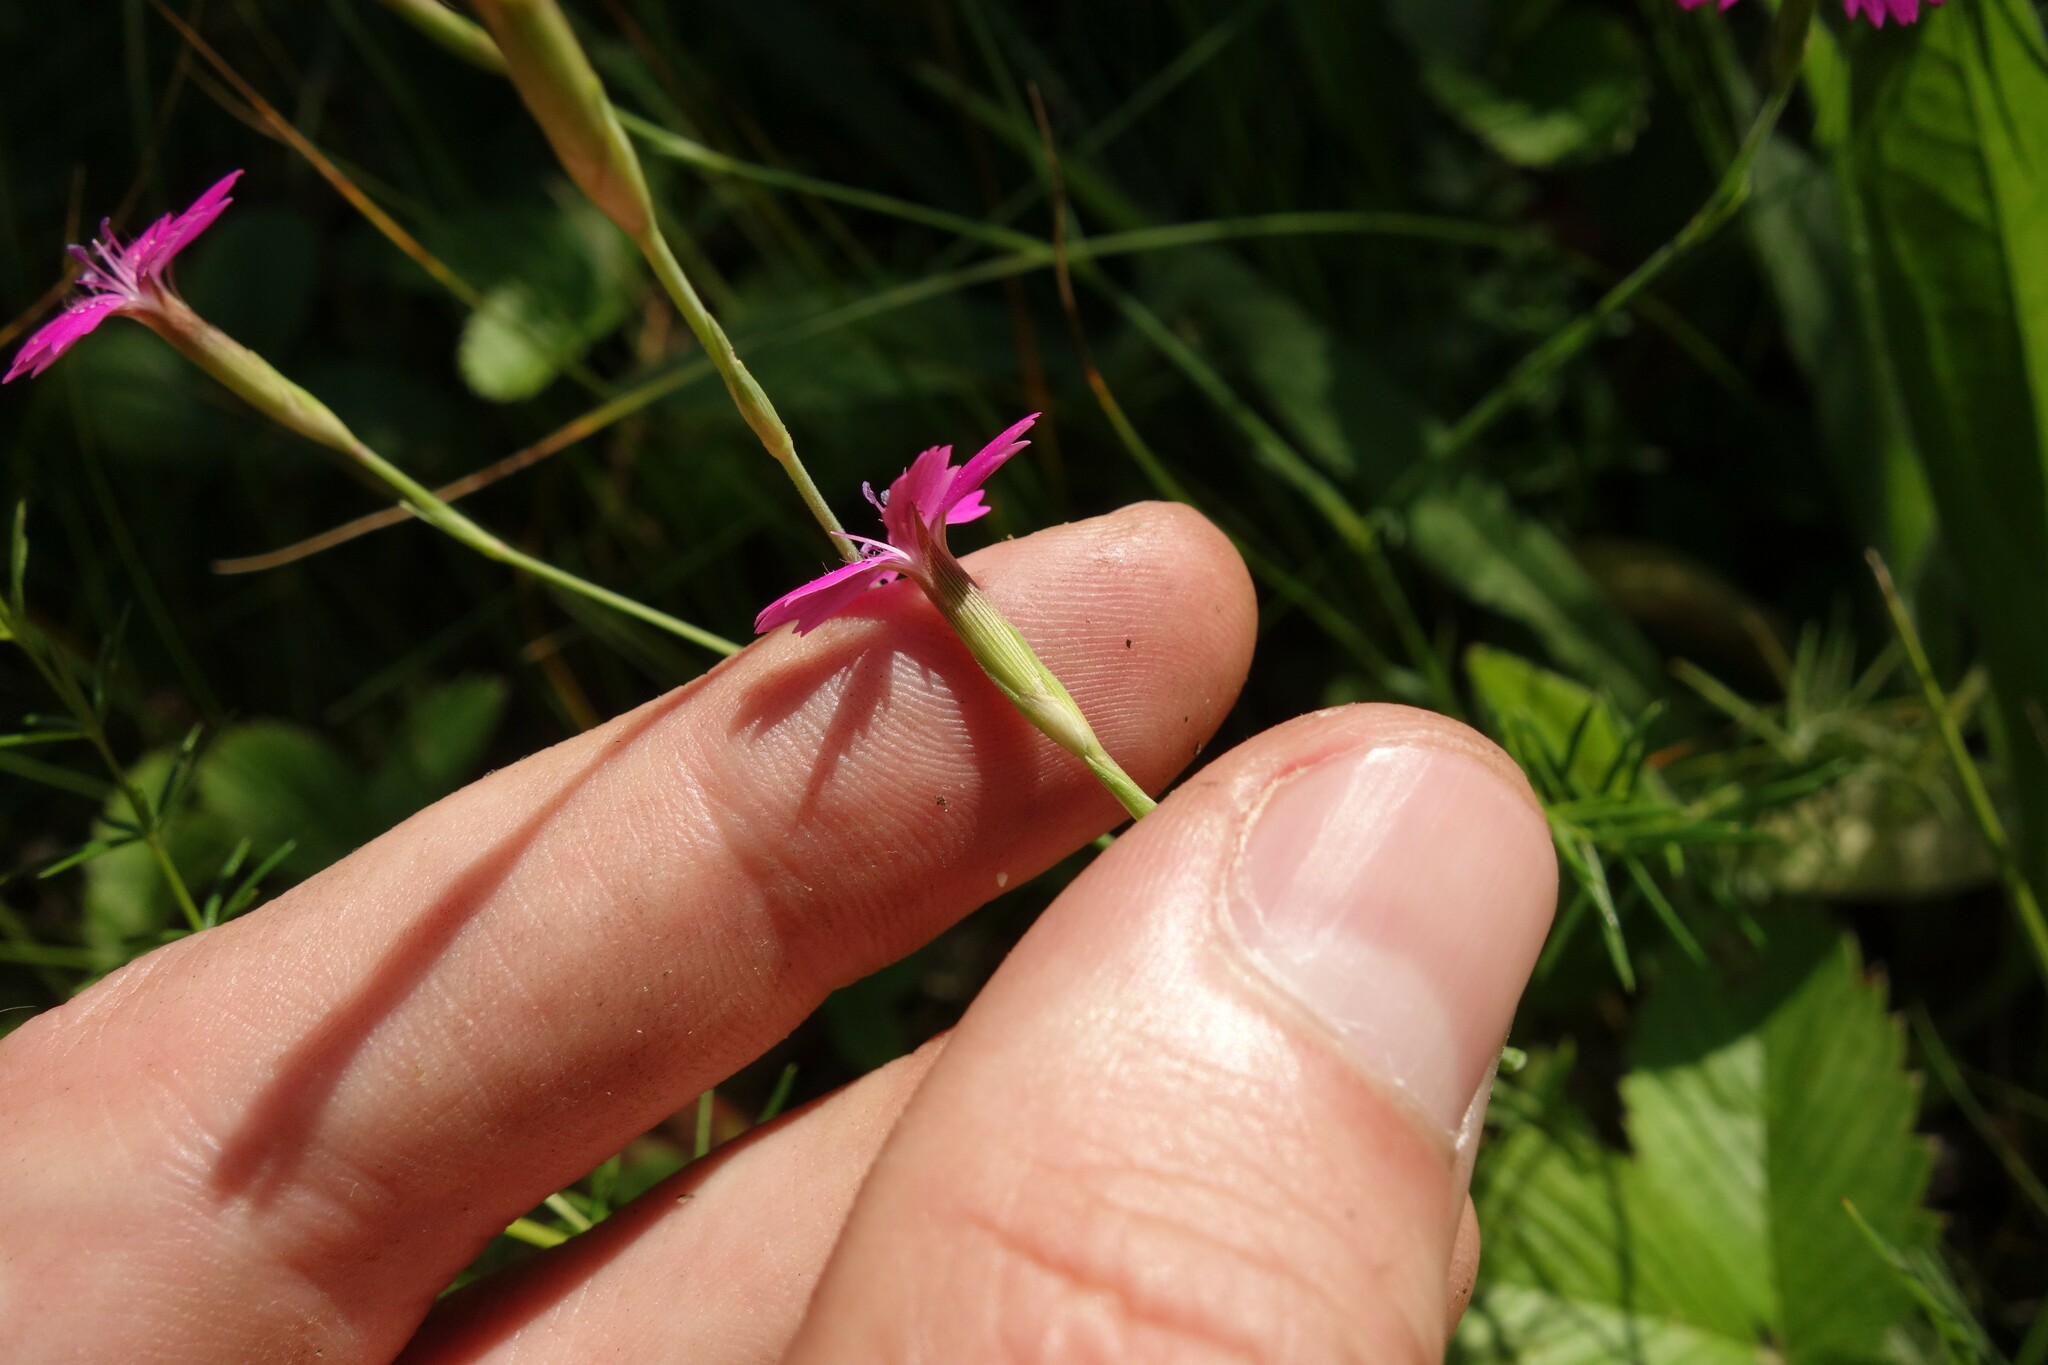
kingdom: Plantae
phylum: Tracheophyta
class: Magnoliopsida
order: Caryophyllales
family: Caryophyllaceae
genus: Dianthus
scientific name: Dianthus deltoides
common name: Maiden pink
